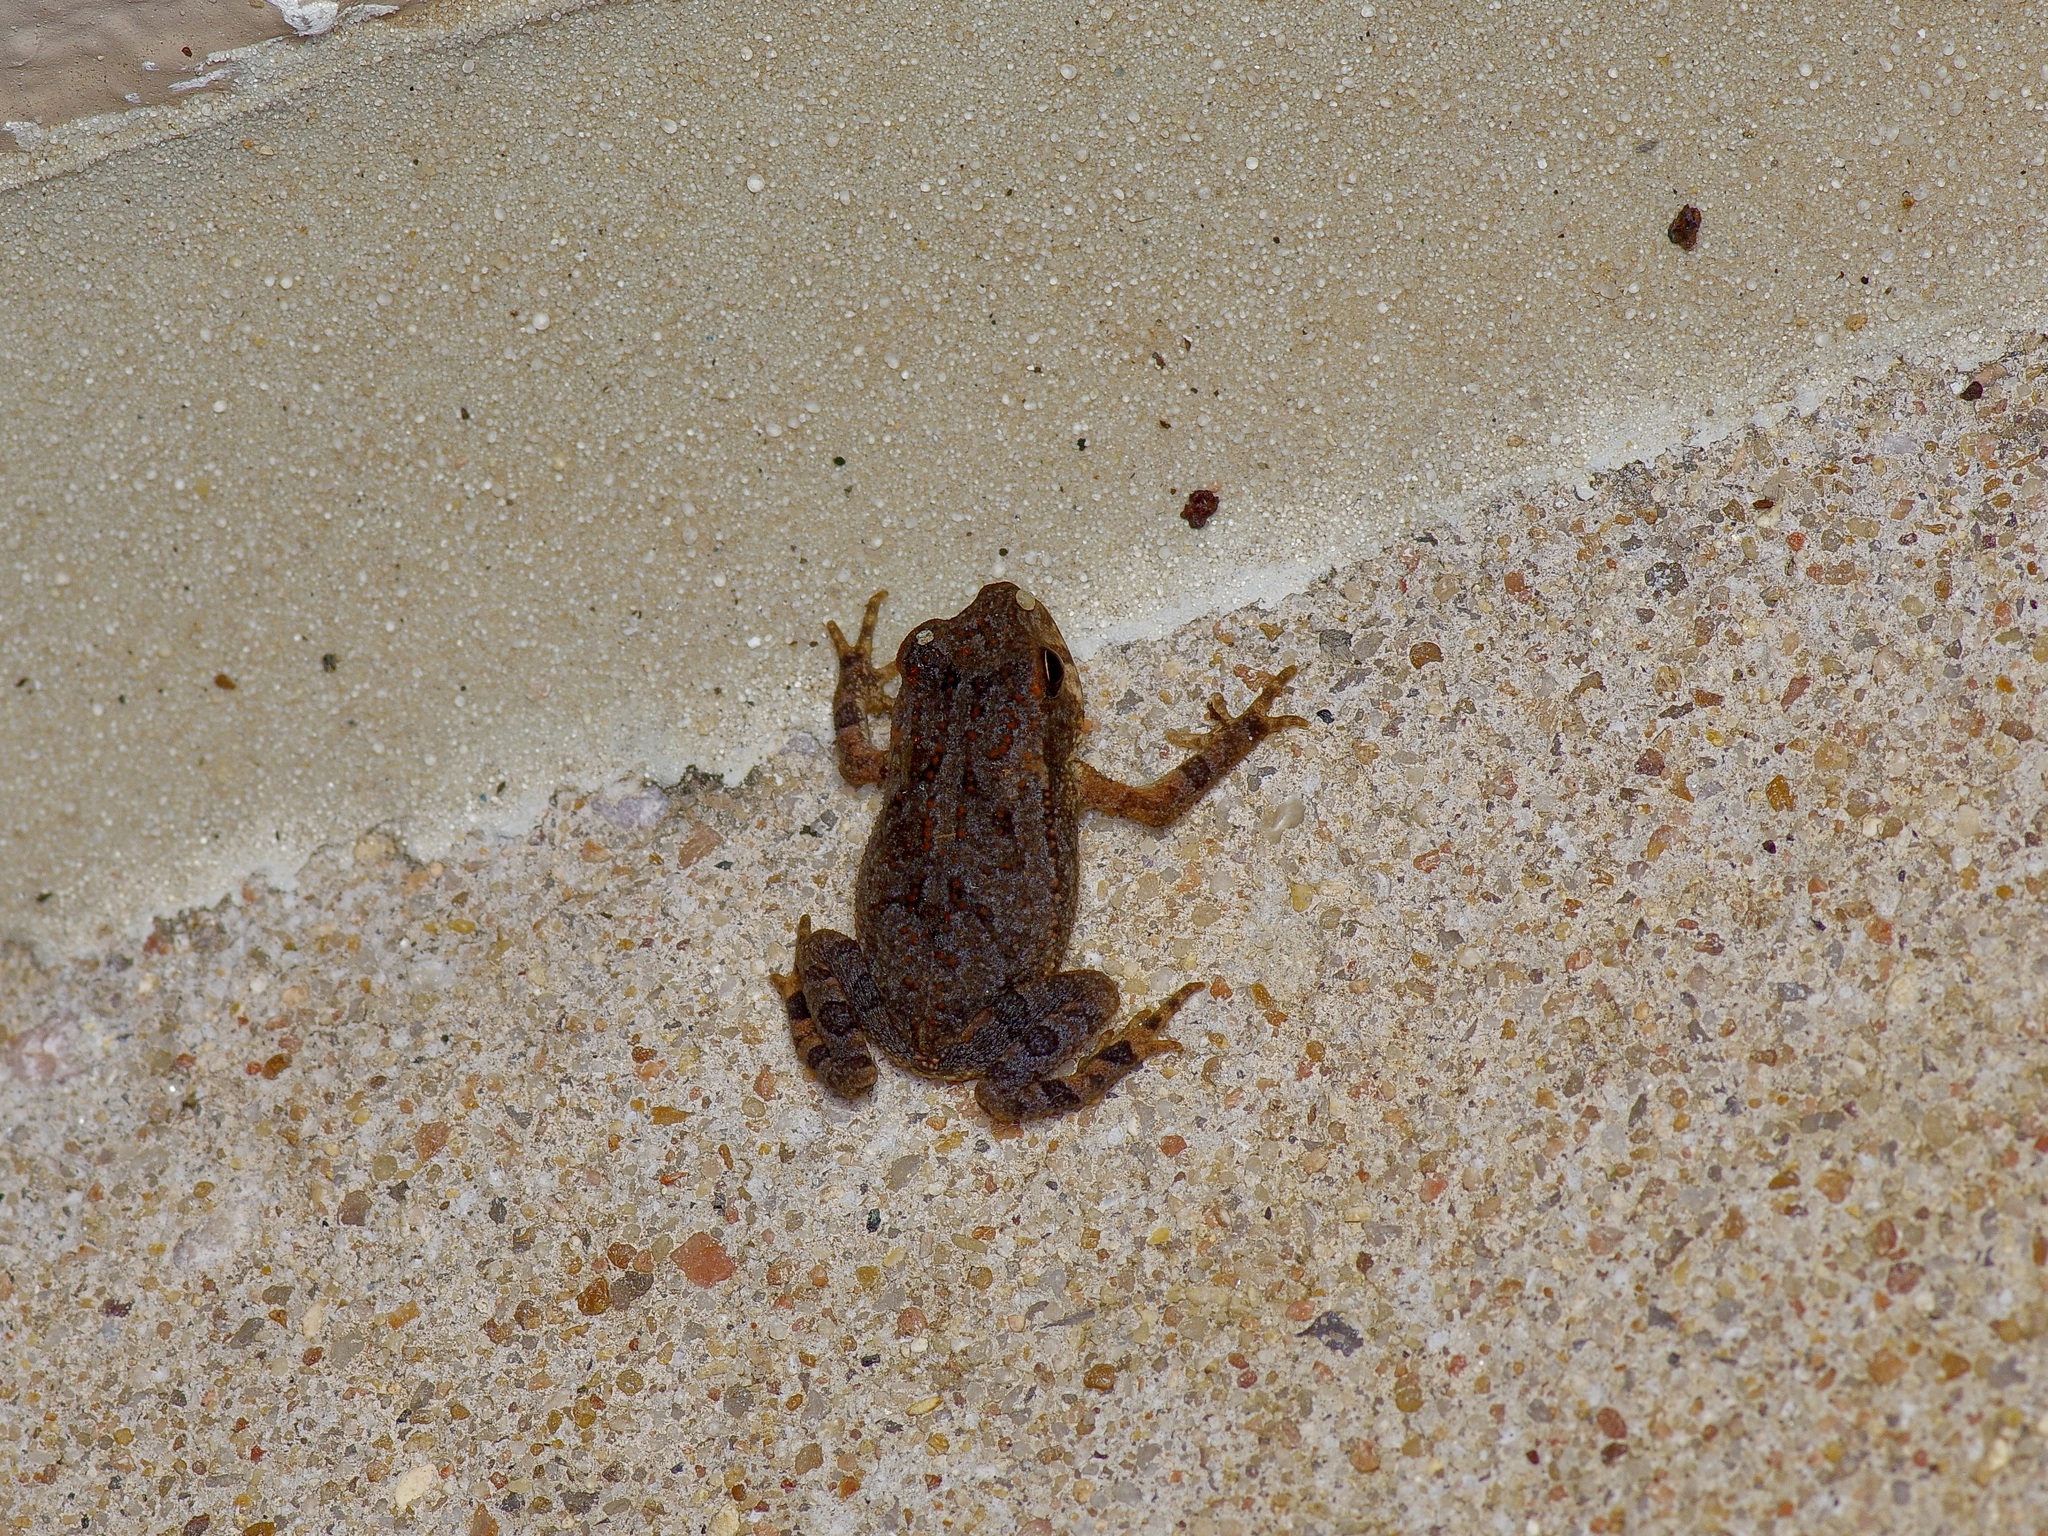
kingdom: Animalia
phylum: Chordata
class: Amphibia
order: Anura
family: Bufonidae
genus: Incilius
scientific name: Incilius nebulifer
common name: Gulf coast toad
